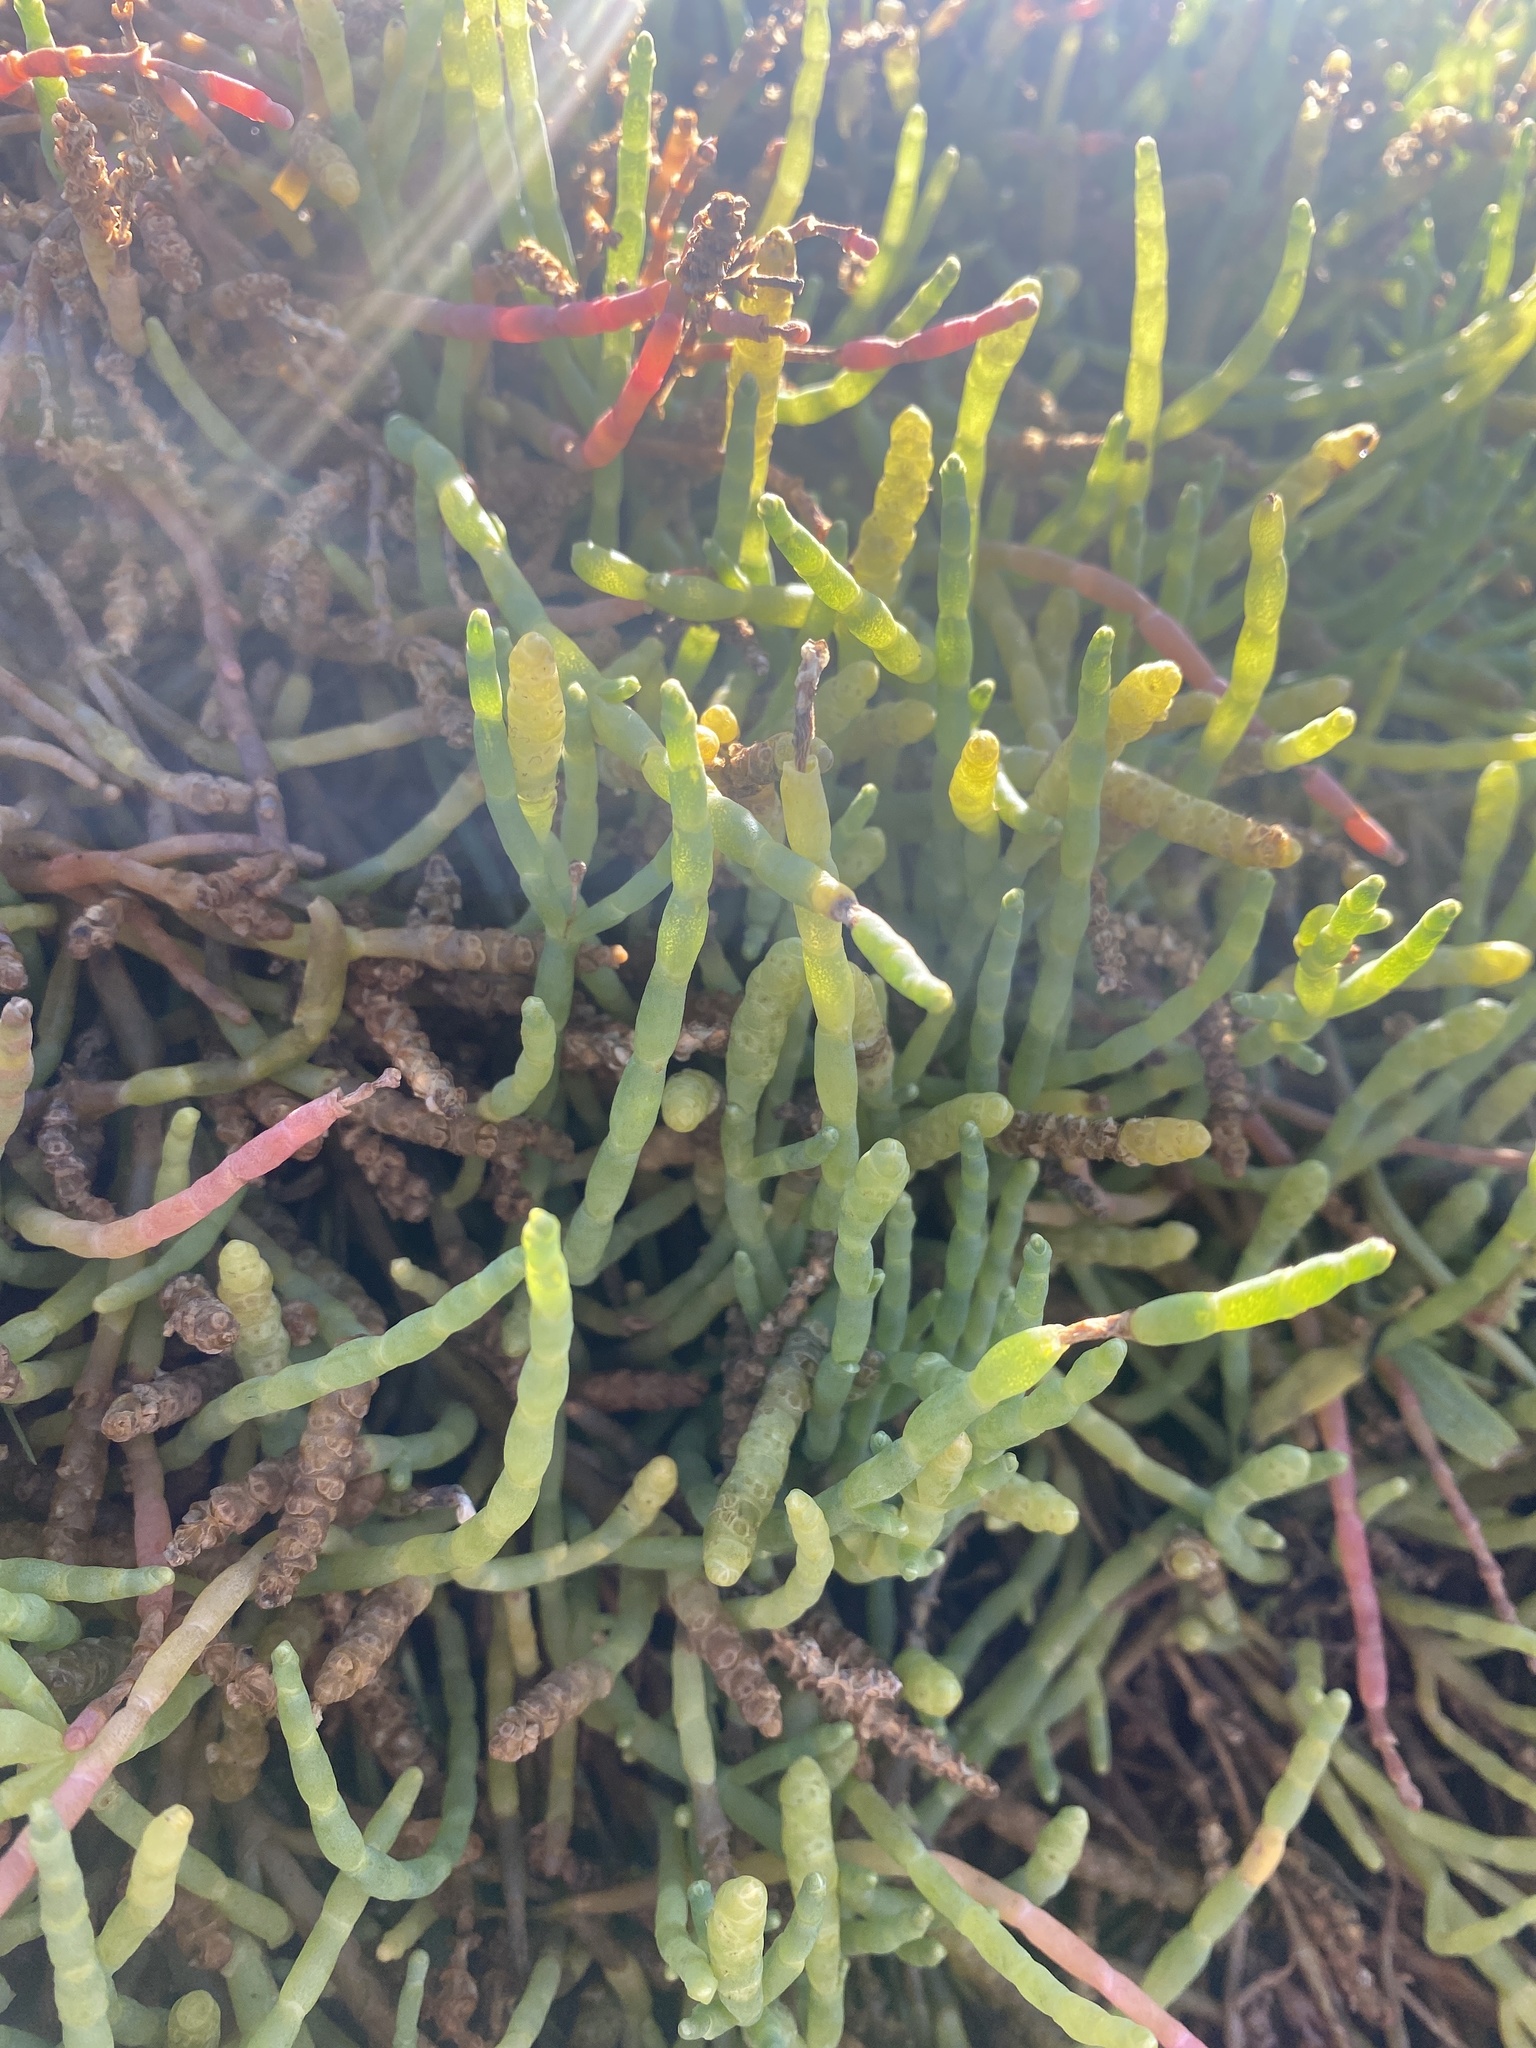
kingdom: Plantae
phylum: Tracheophyta
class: Magnoliopsida
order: Caryophyllales
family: Amaranthaceae
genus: Salicornia
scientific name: Salicornia pacifica
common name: Pacific glasswort
